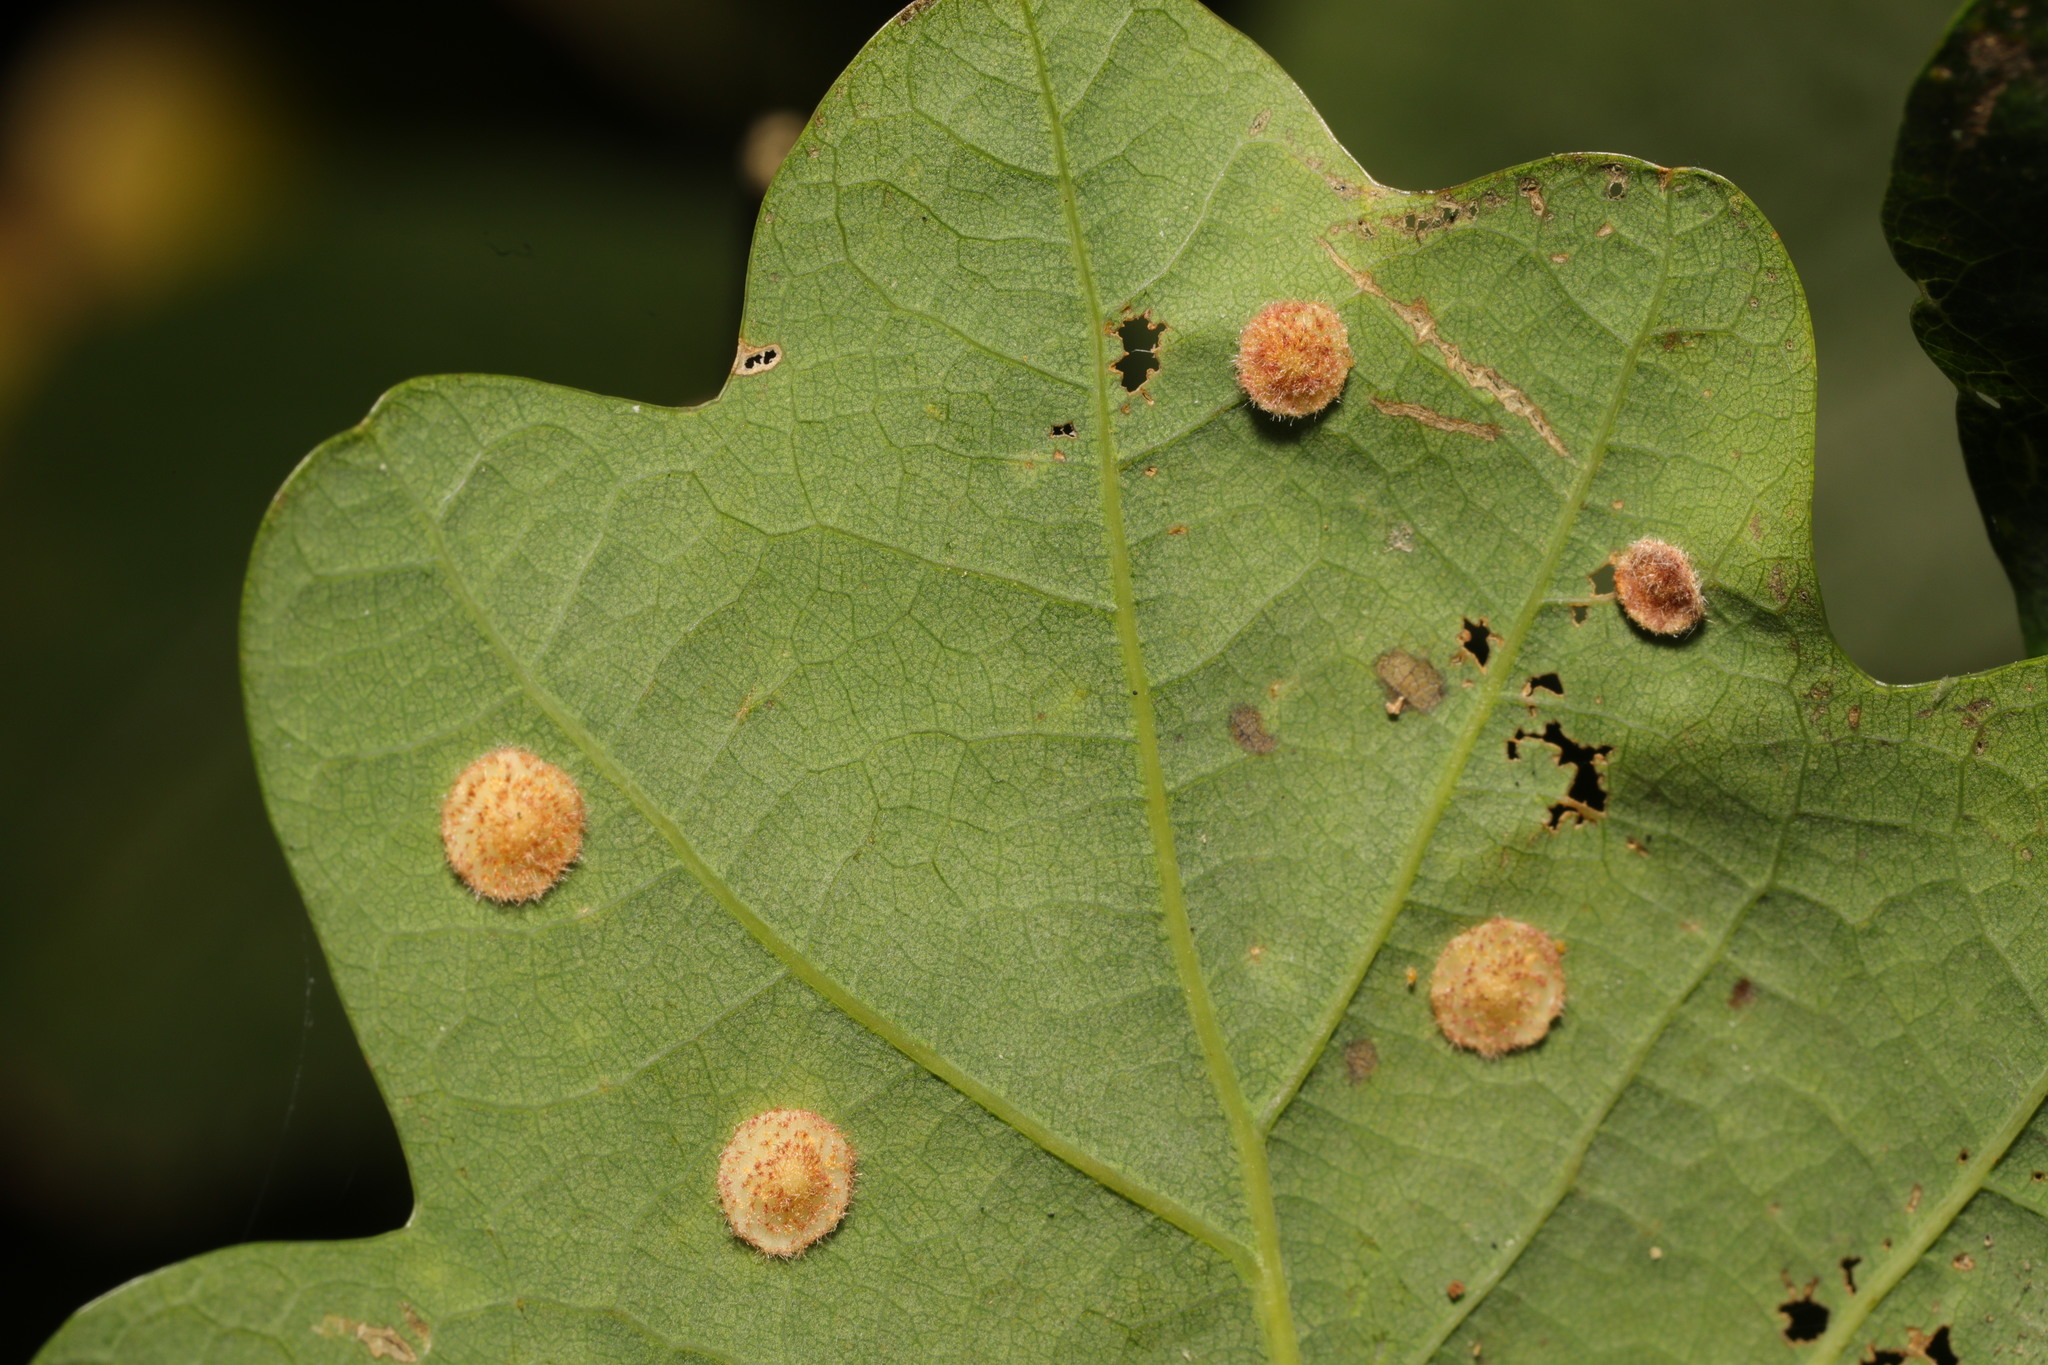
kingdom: Animalia
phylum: Arthropoda
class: Insecta
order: Hymenoptera
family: Cynipidae
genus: Neuroterus
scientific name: Neuroterus quercusbaccarum
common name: Common spangle gall
